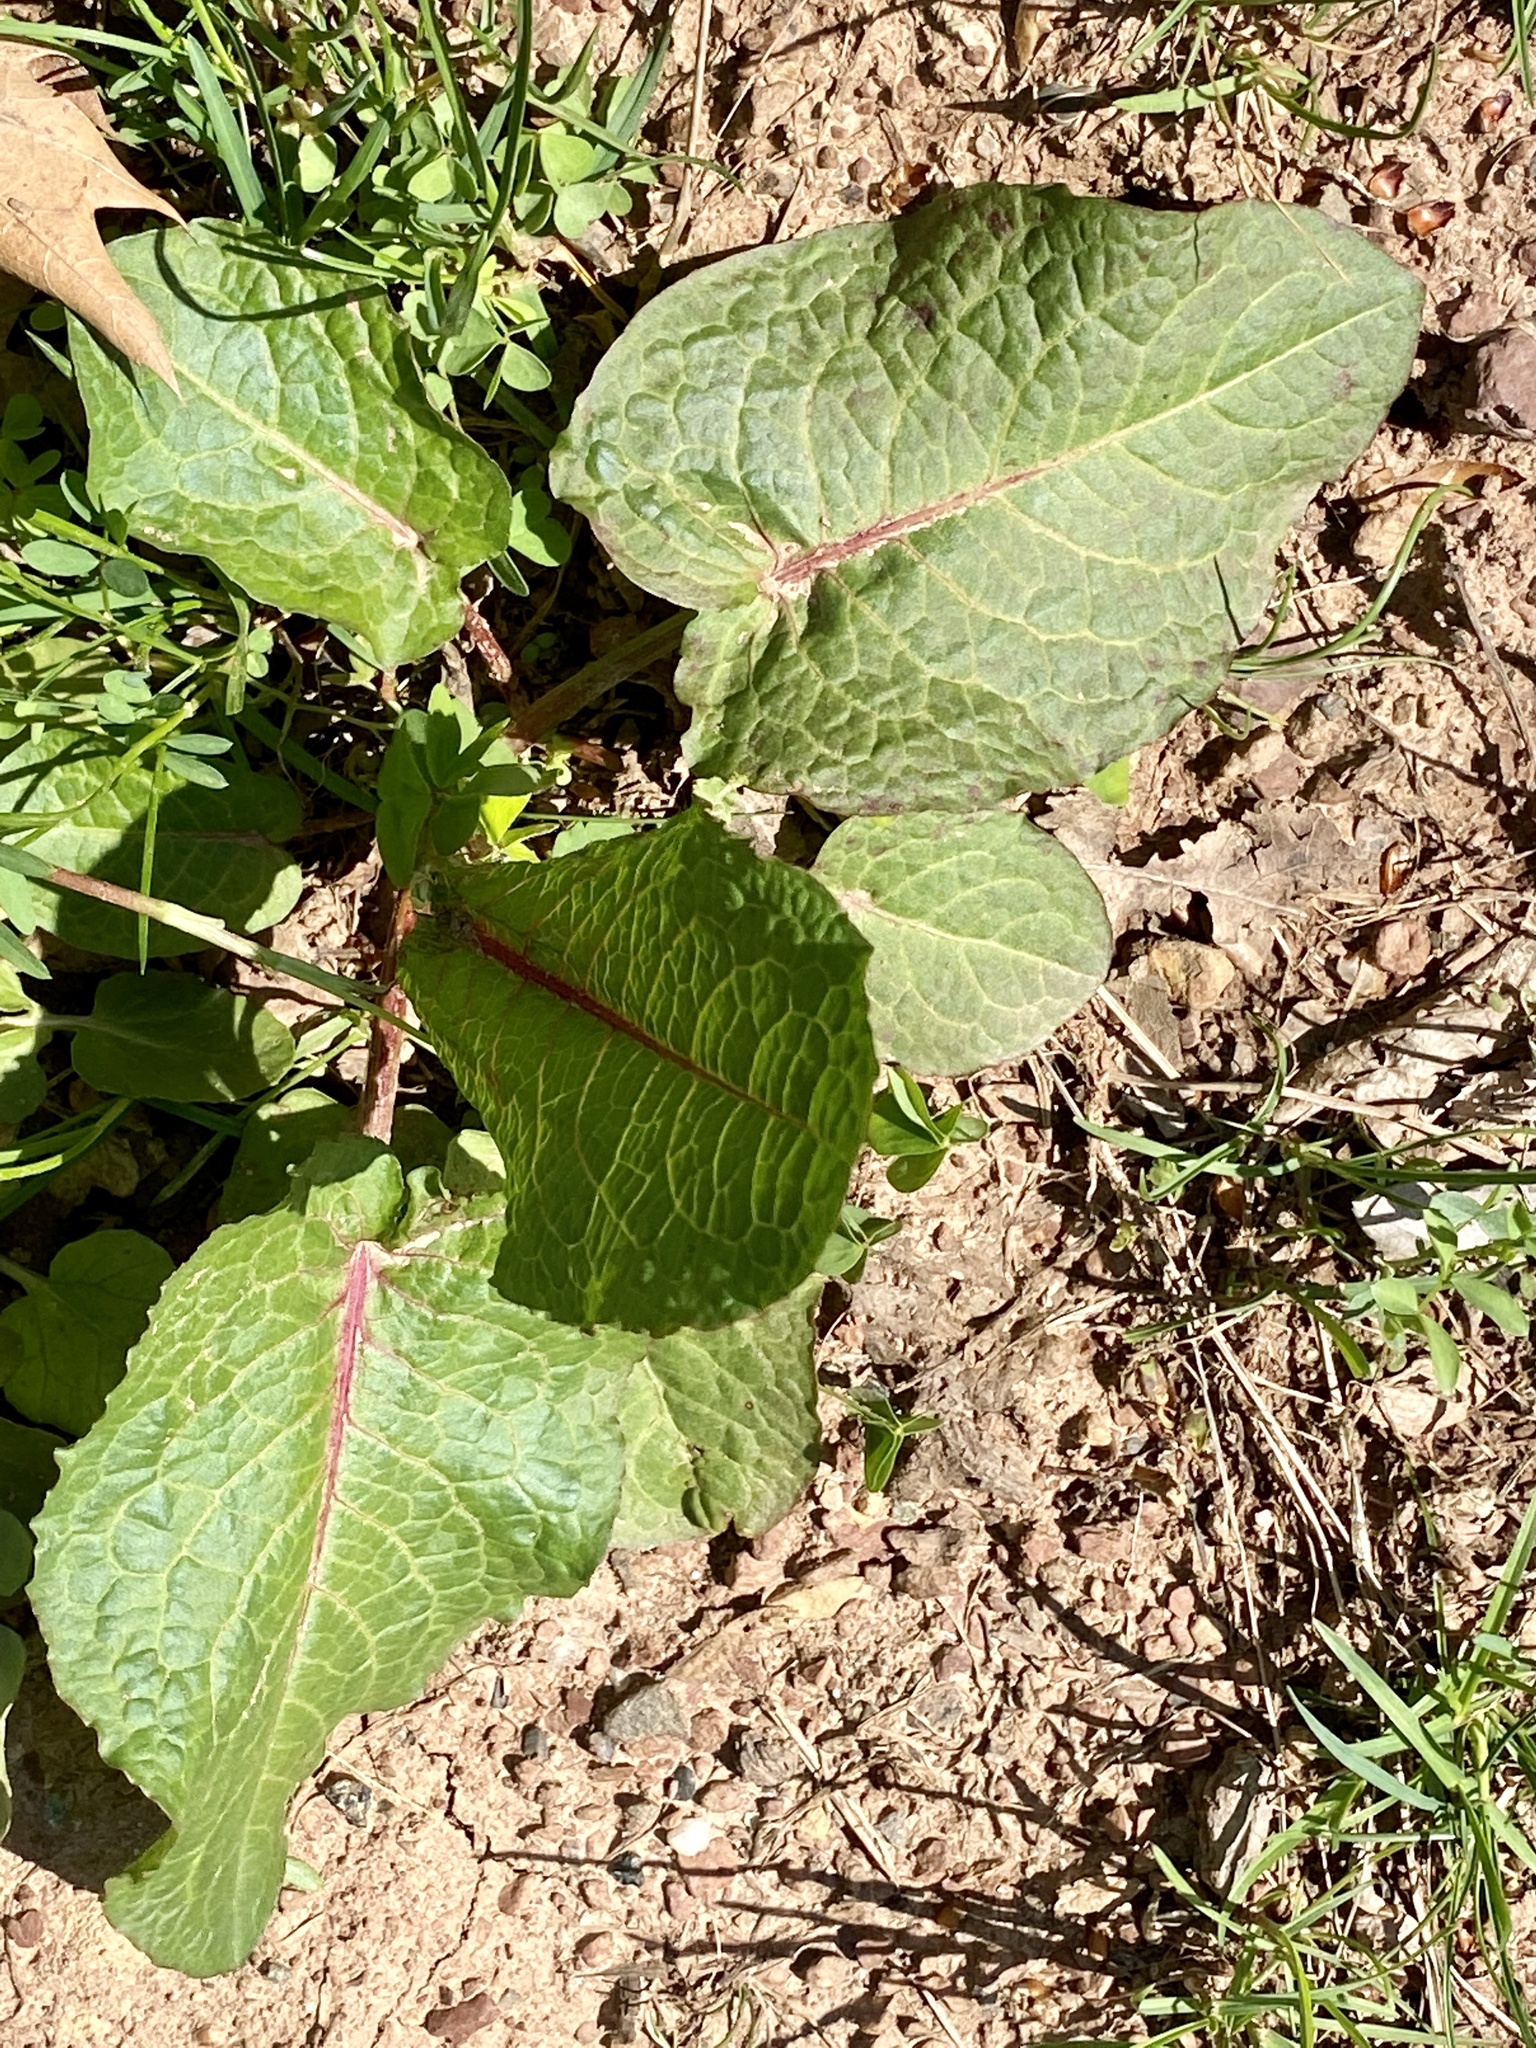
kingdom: Plantae
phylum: Tracheophyta
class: Magnoliopsida
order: Caryophyllales
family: Polygonaceae
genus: Rumex
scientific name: Rumex obtusifolius
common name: Bitter dock
